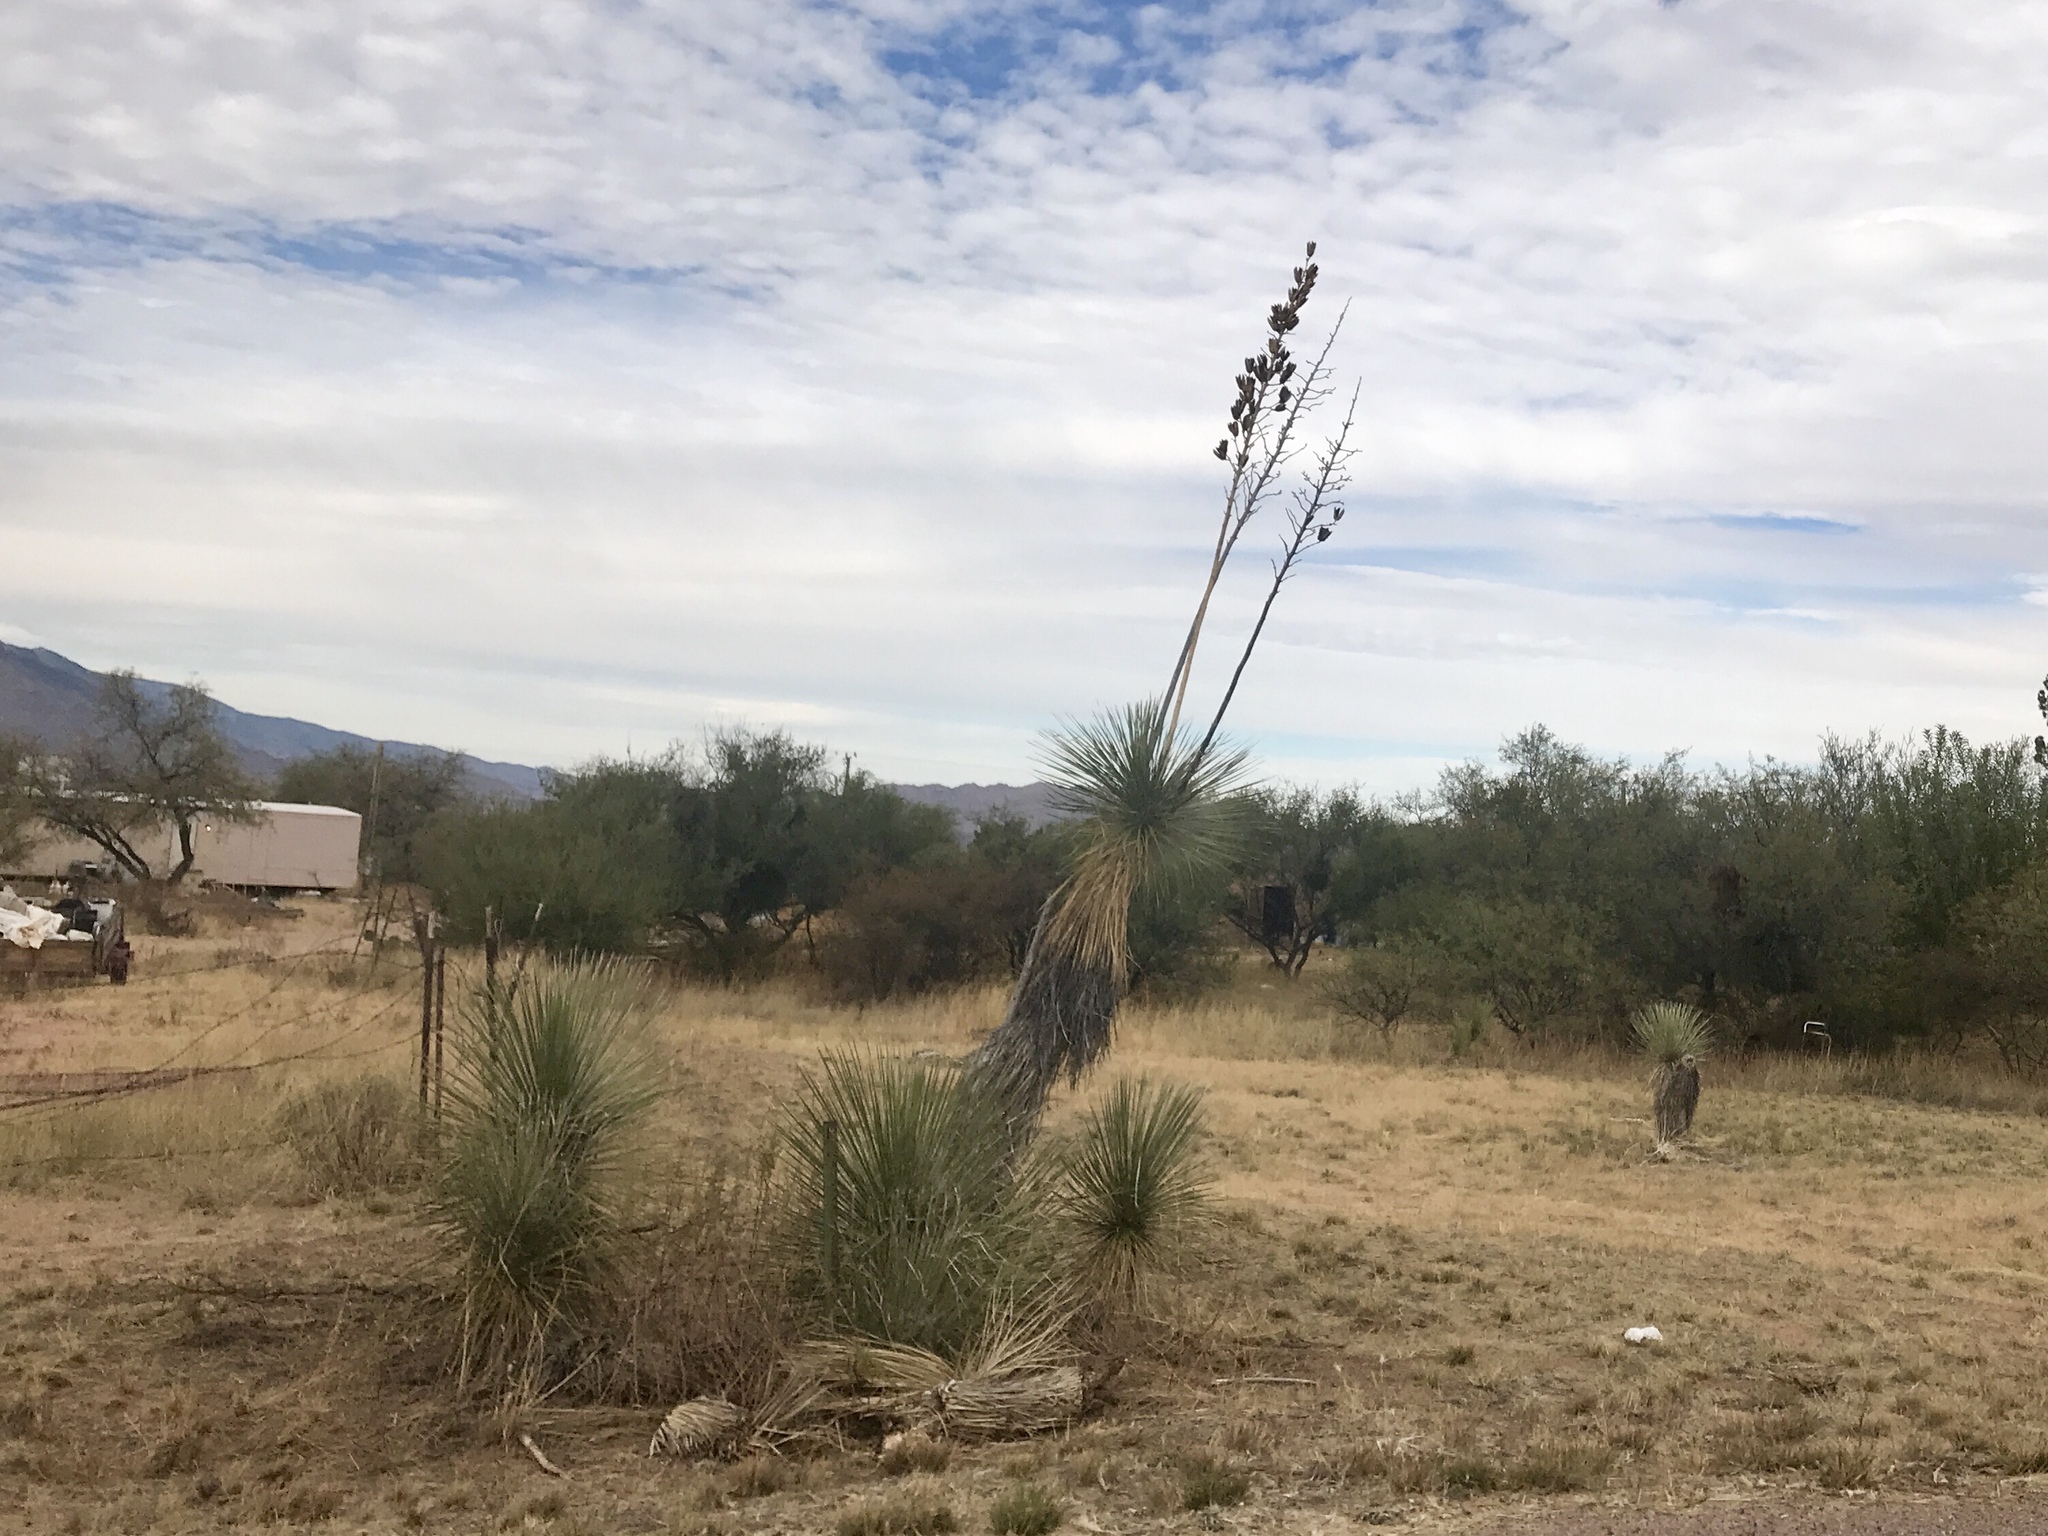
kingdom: Plantae
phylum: Tracheophyta
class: Liliopsida
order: Asparagales
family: Asparagaceae
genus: Yucca
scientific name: Yucca elata
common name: Palmella
